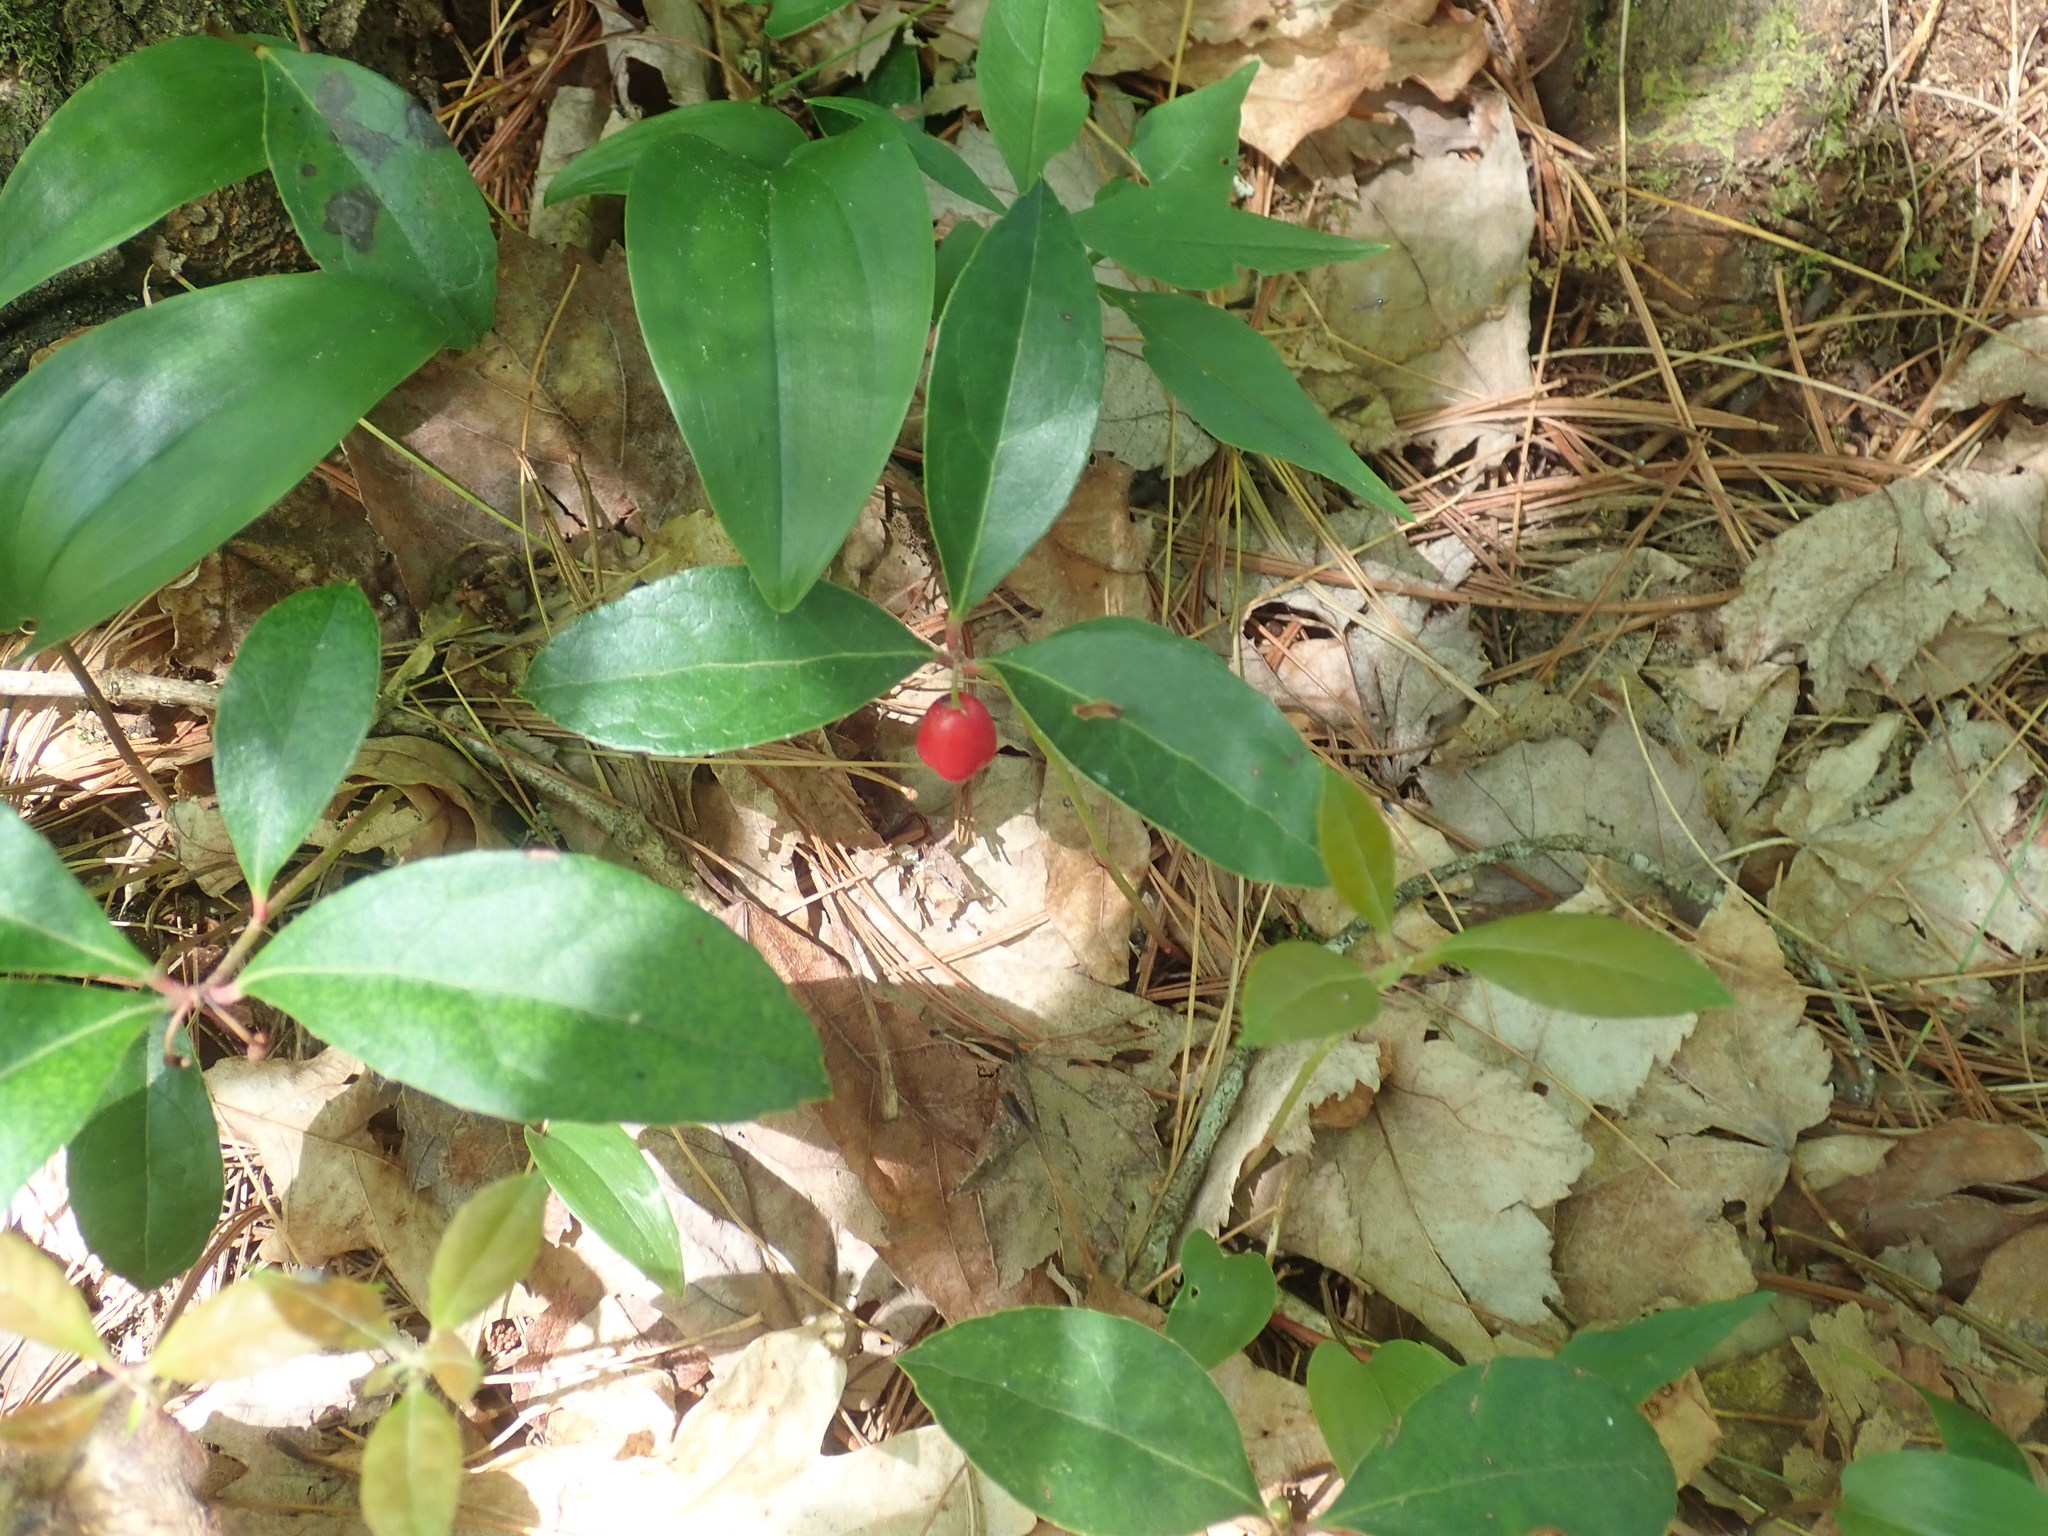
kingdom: Plantae
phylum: Tracheophyta
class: Magnoliopsida
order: Ericales
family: Ericaceae
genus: Gaultheria
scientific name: Gaultheria procumbens
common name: Checkerberry
